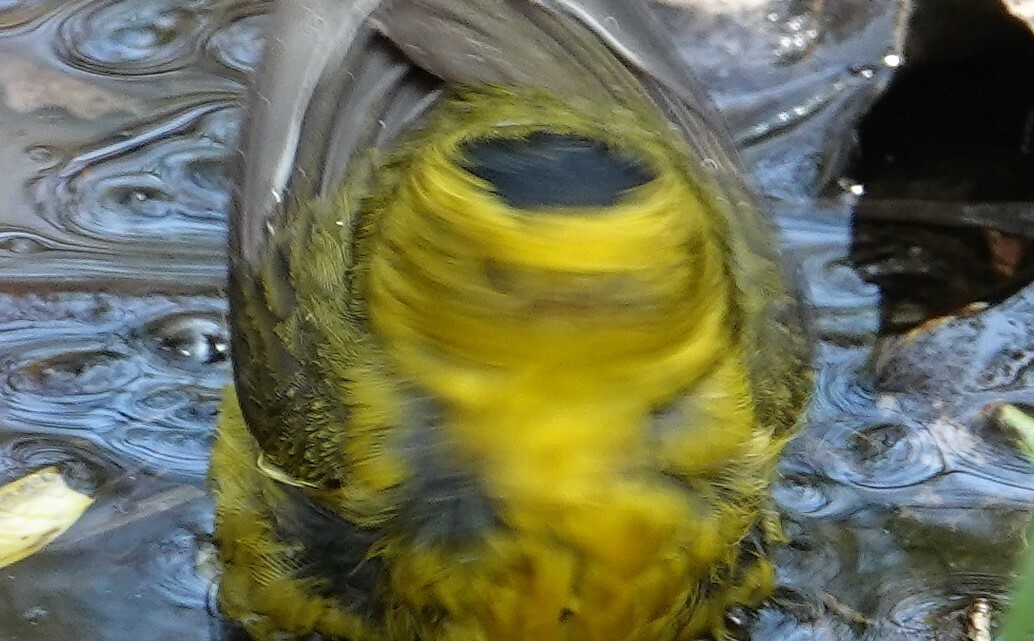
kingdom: Animalia
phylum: Chordata
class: Aves
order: Passeriformes
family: Parulidae
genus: Cardellina
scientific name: Cardellina pusilla
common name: Wilson's warbler
